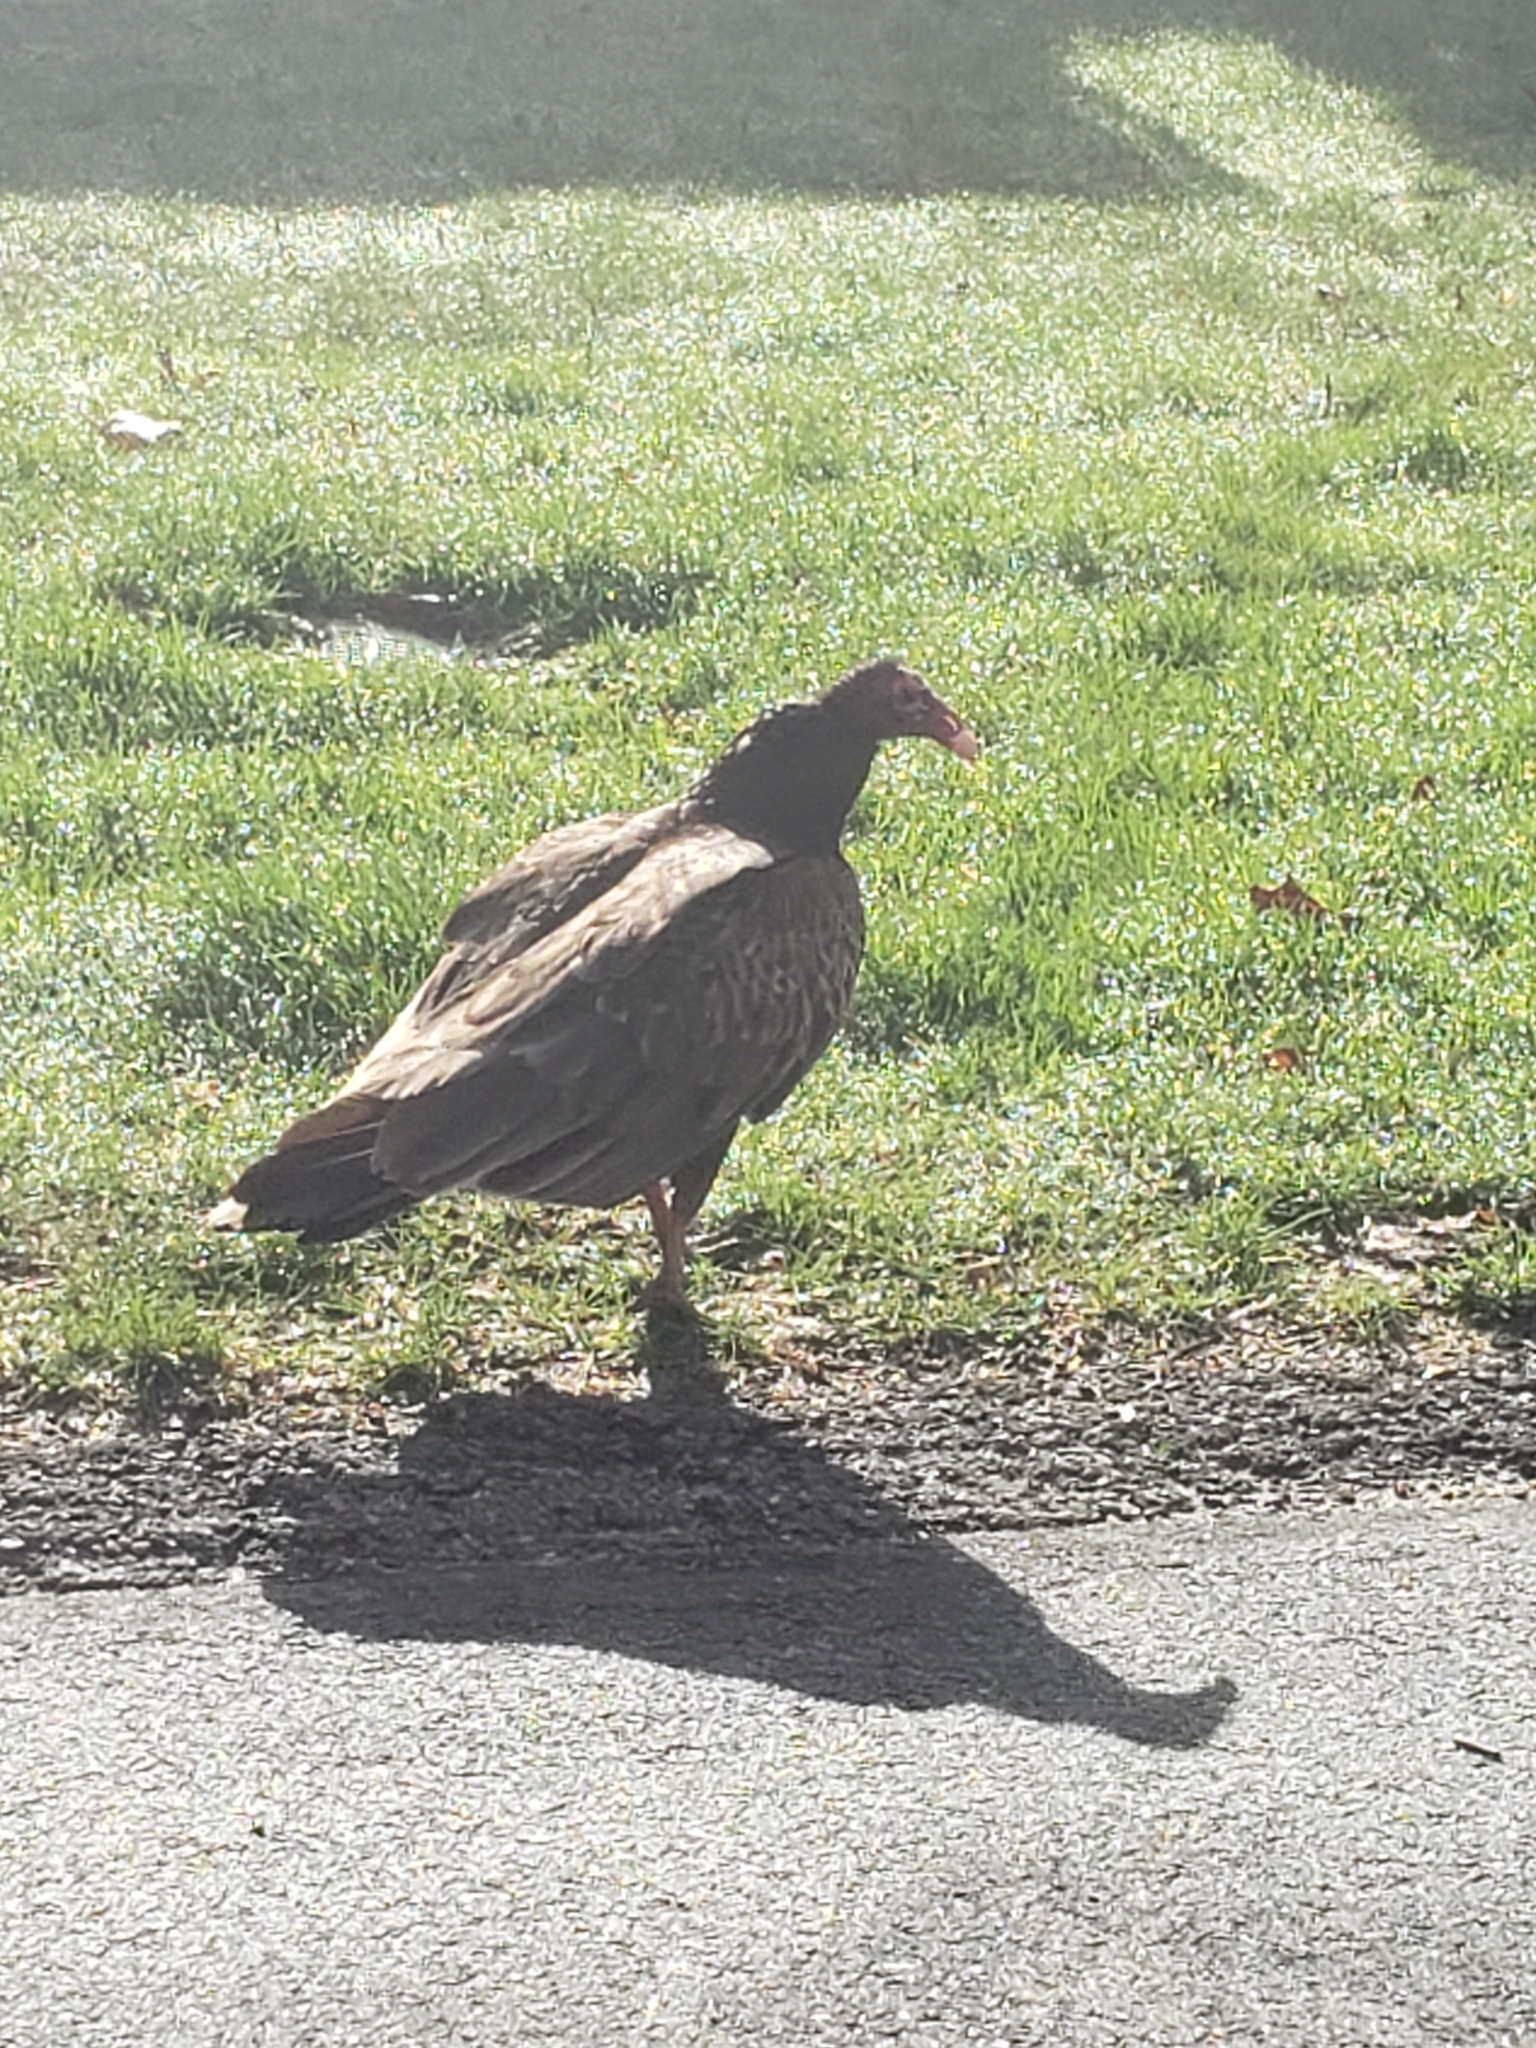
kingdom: Animalia
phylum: Chordata
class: Aves
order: Accipitriformes
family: Cathartidae
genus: Cathartes
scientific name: Cathartes aura
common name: Turkey vulture
